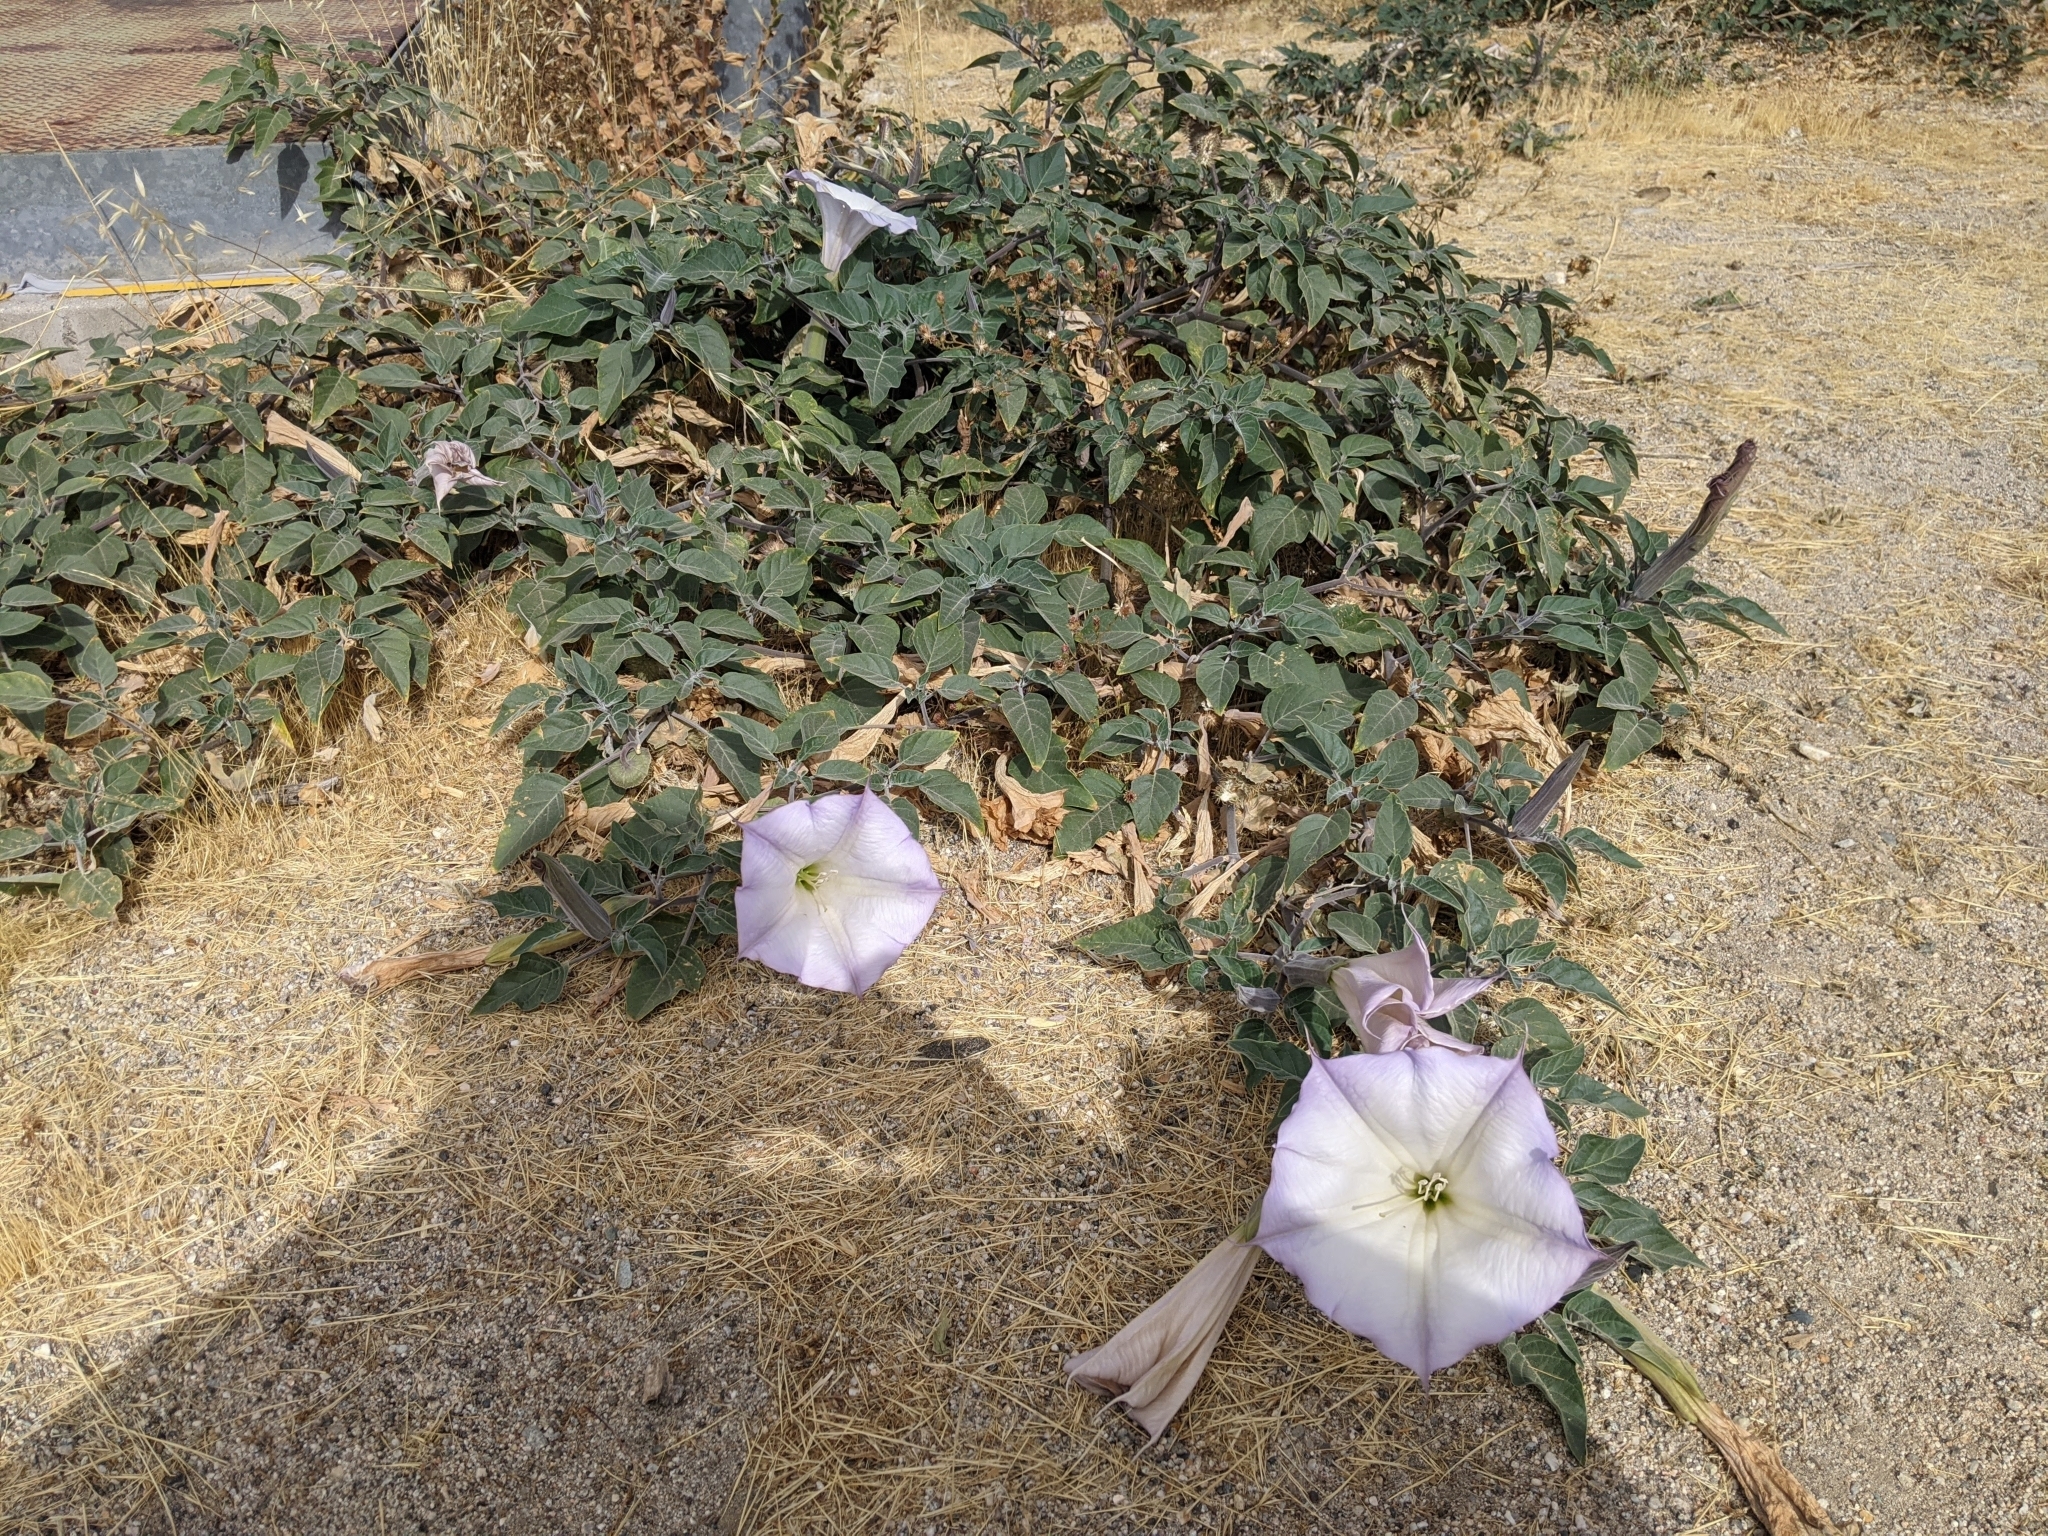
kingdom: Plantae
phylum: Tracheophyta
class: Magnoliopsida
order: Solanales
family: Solanaceae
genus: Datura
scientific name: Datura wrightii
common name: Sacred thorn-apple
